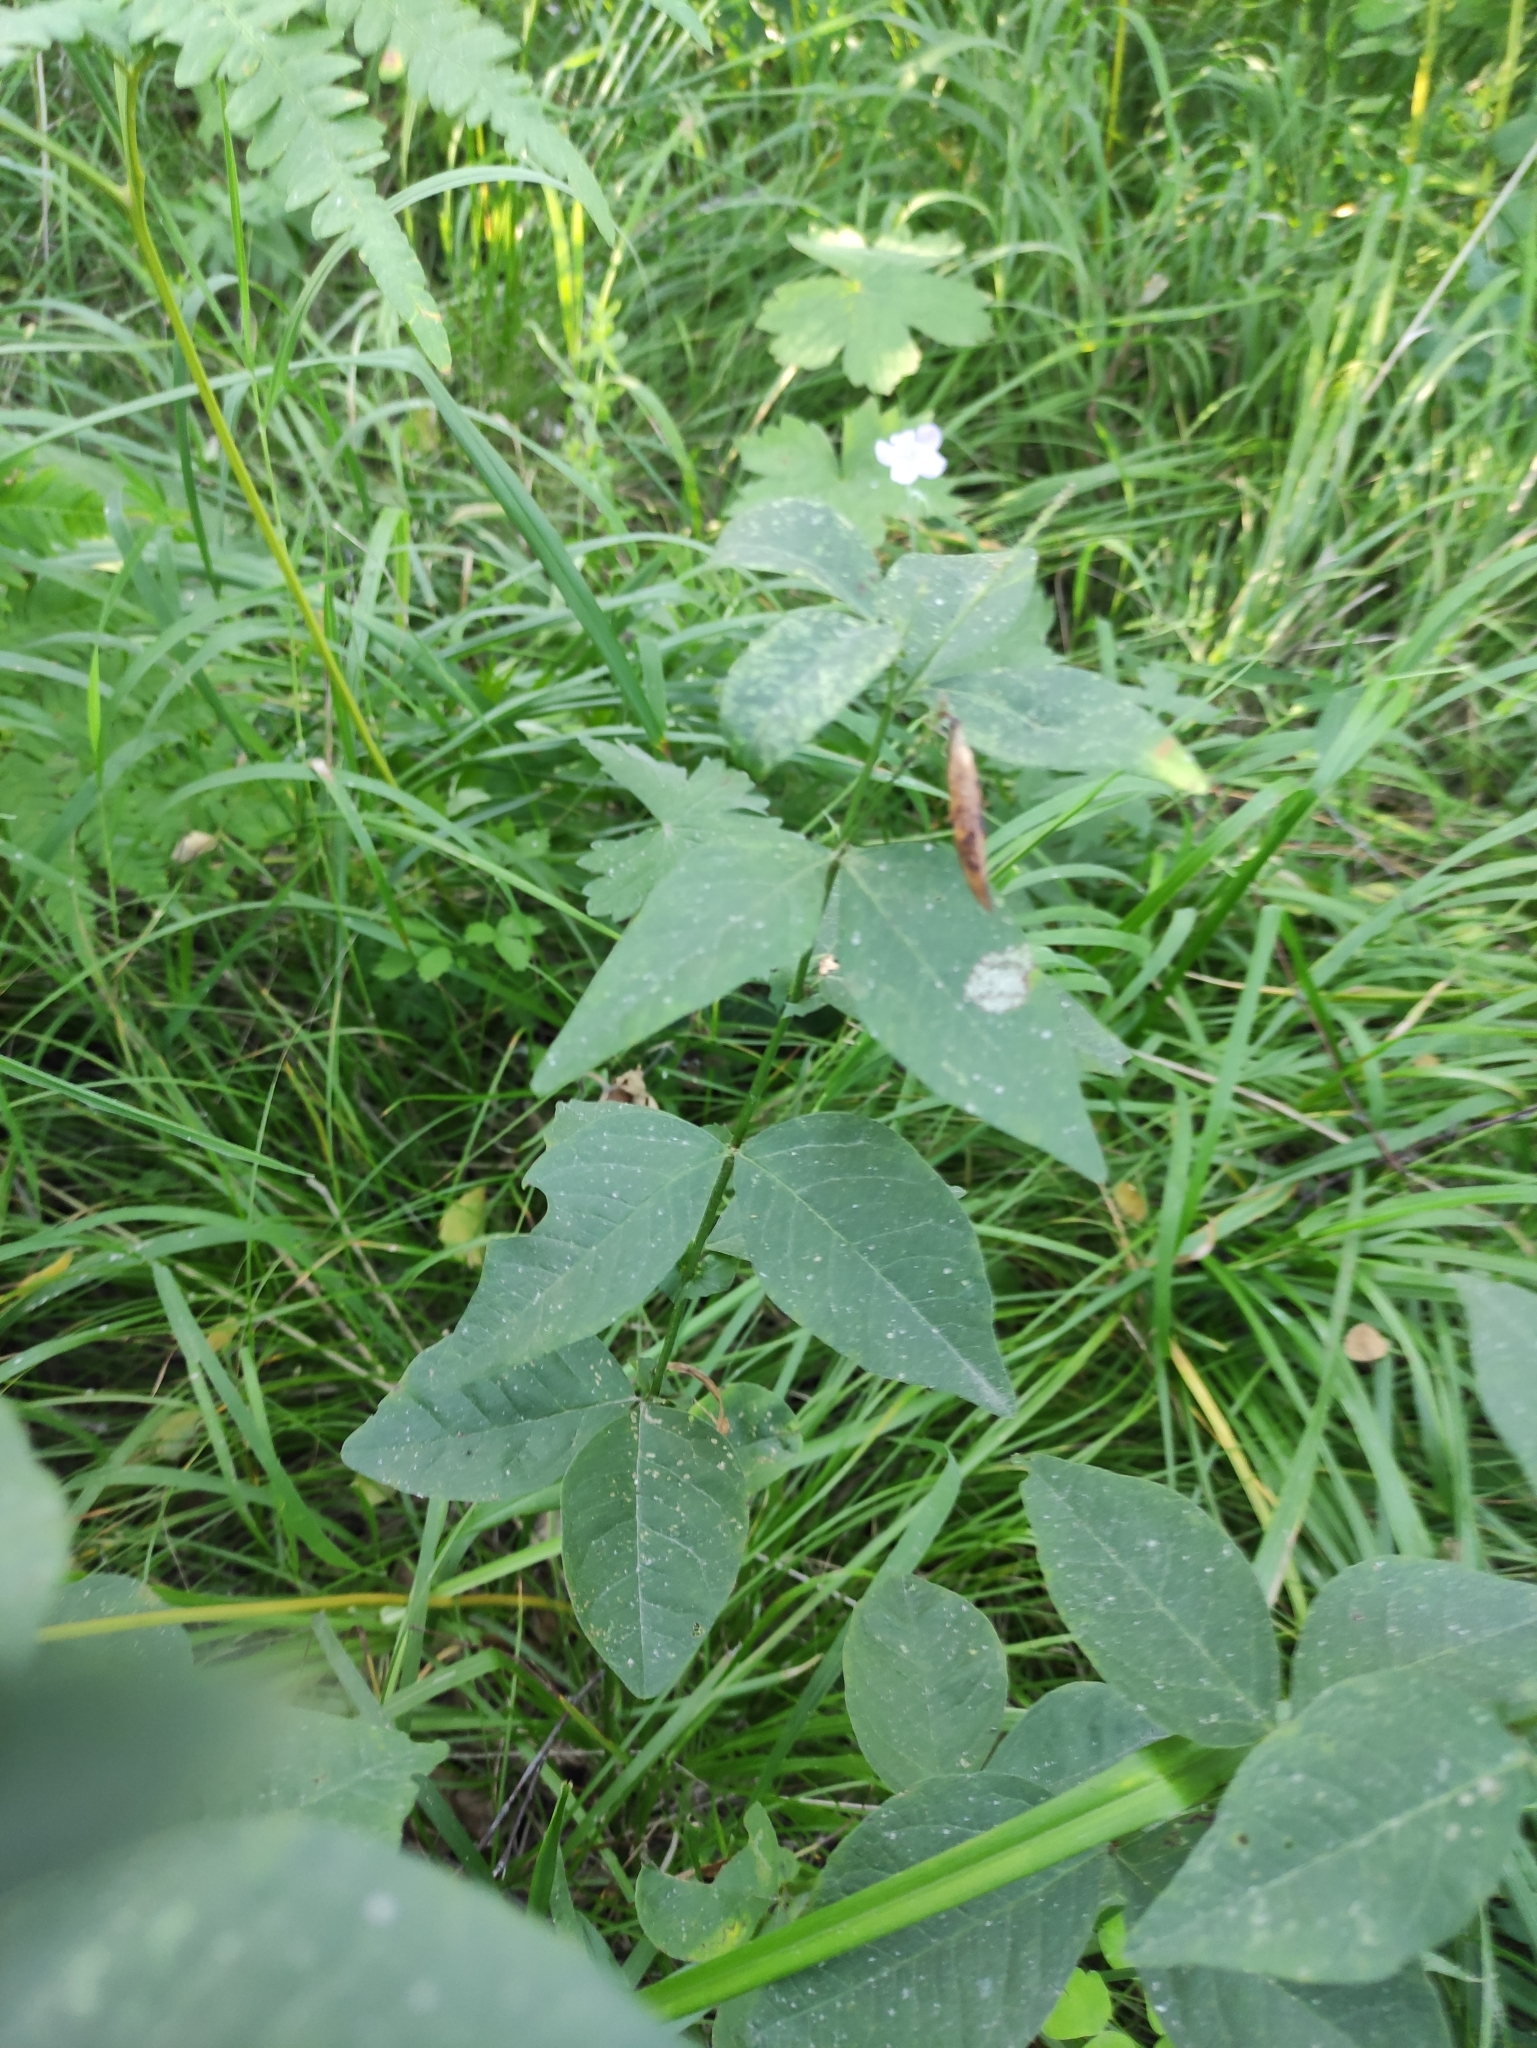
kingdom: Plantae
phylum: Tracheophyta
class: Magnoliopsida
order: Fabales
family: Fabaceae
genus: Vicia
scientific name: Vicia unijuga
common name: Two-leaf vetch
